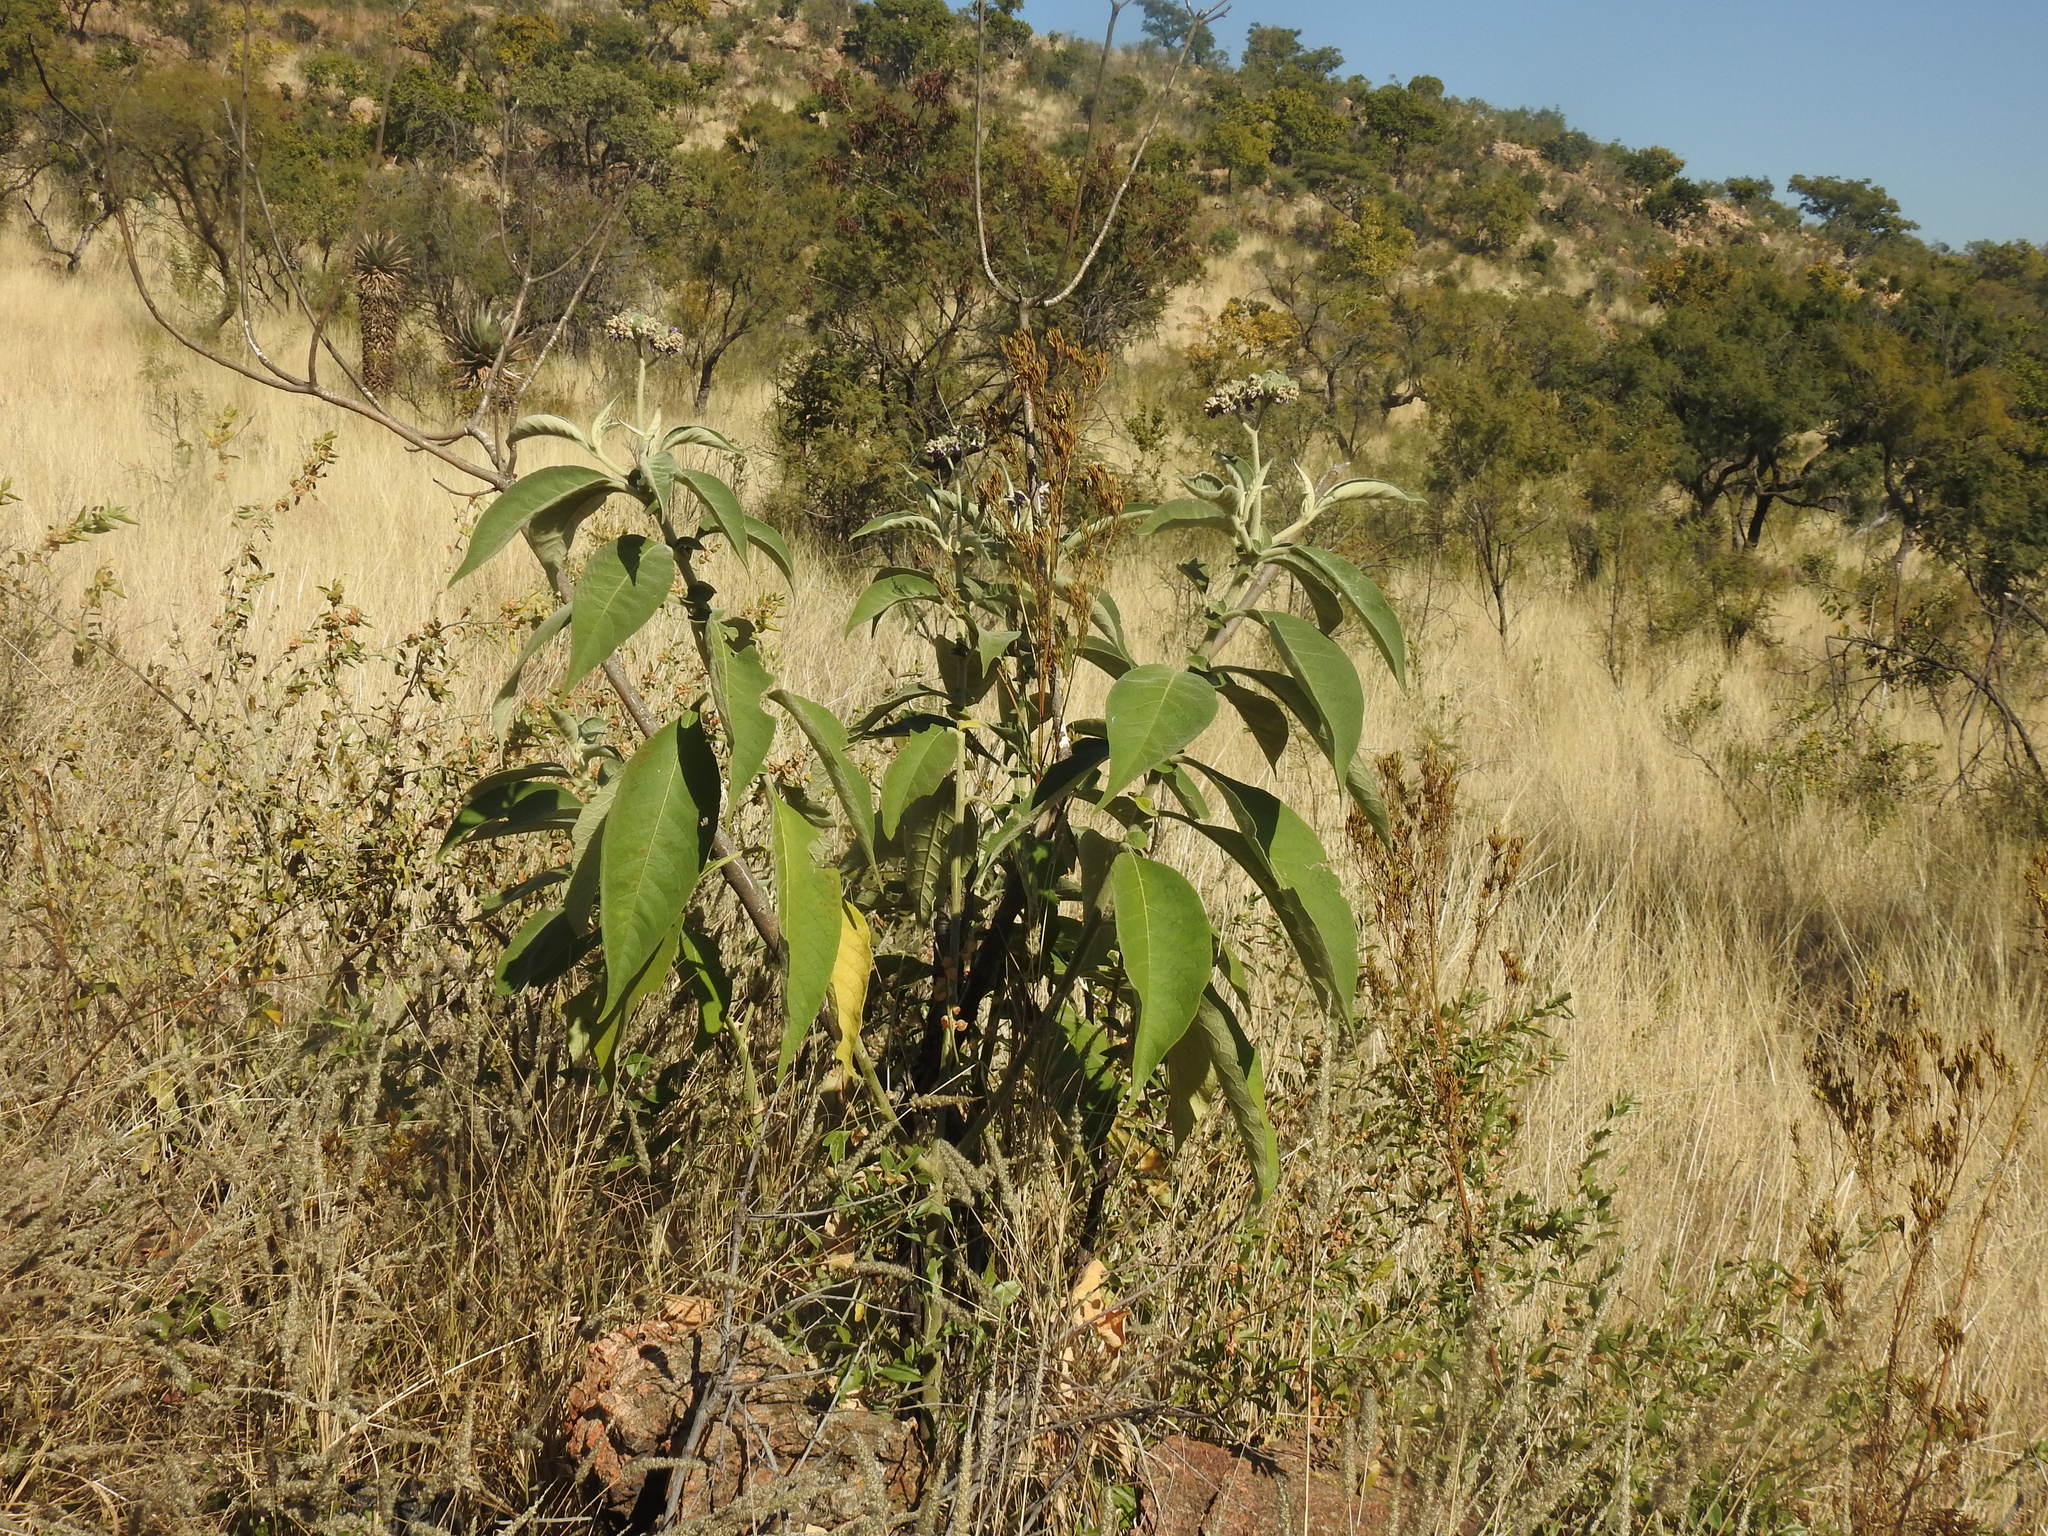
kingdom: Plantae
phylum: Tracheophyta
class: Magnoliopsida
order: Solanales
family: Solanaceae
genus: Solanum
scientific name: Solanum mauritianum
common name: Earleaf nightshade
